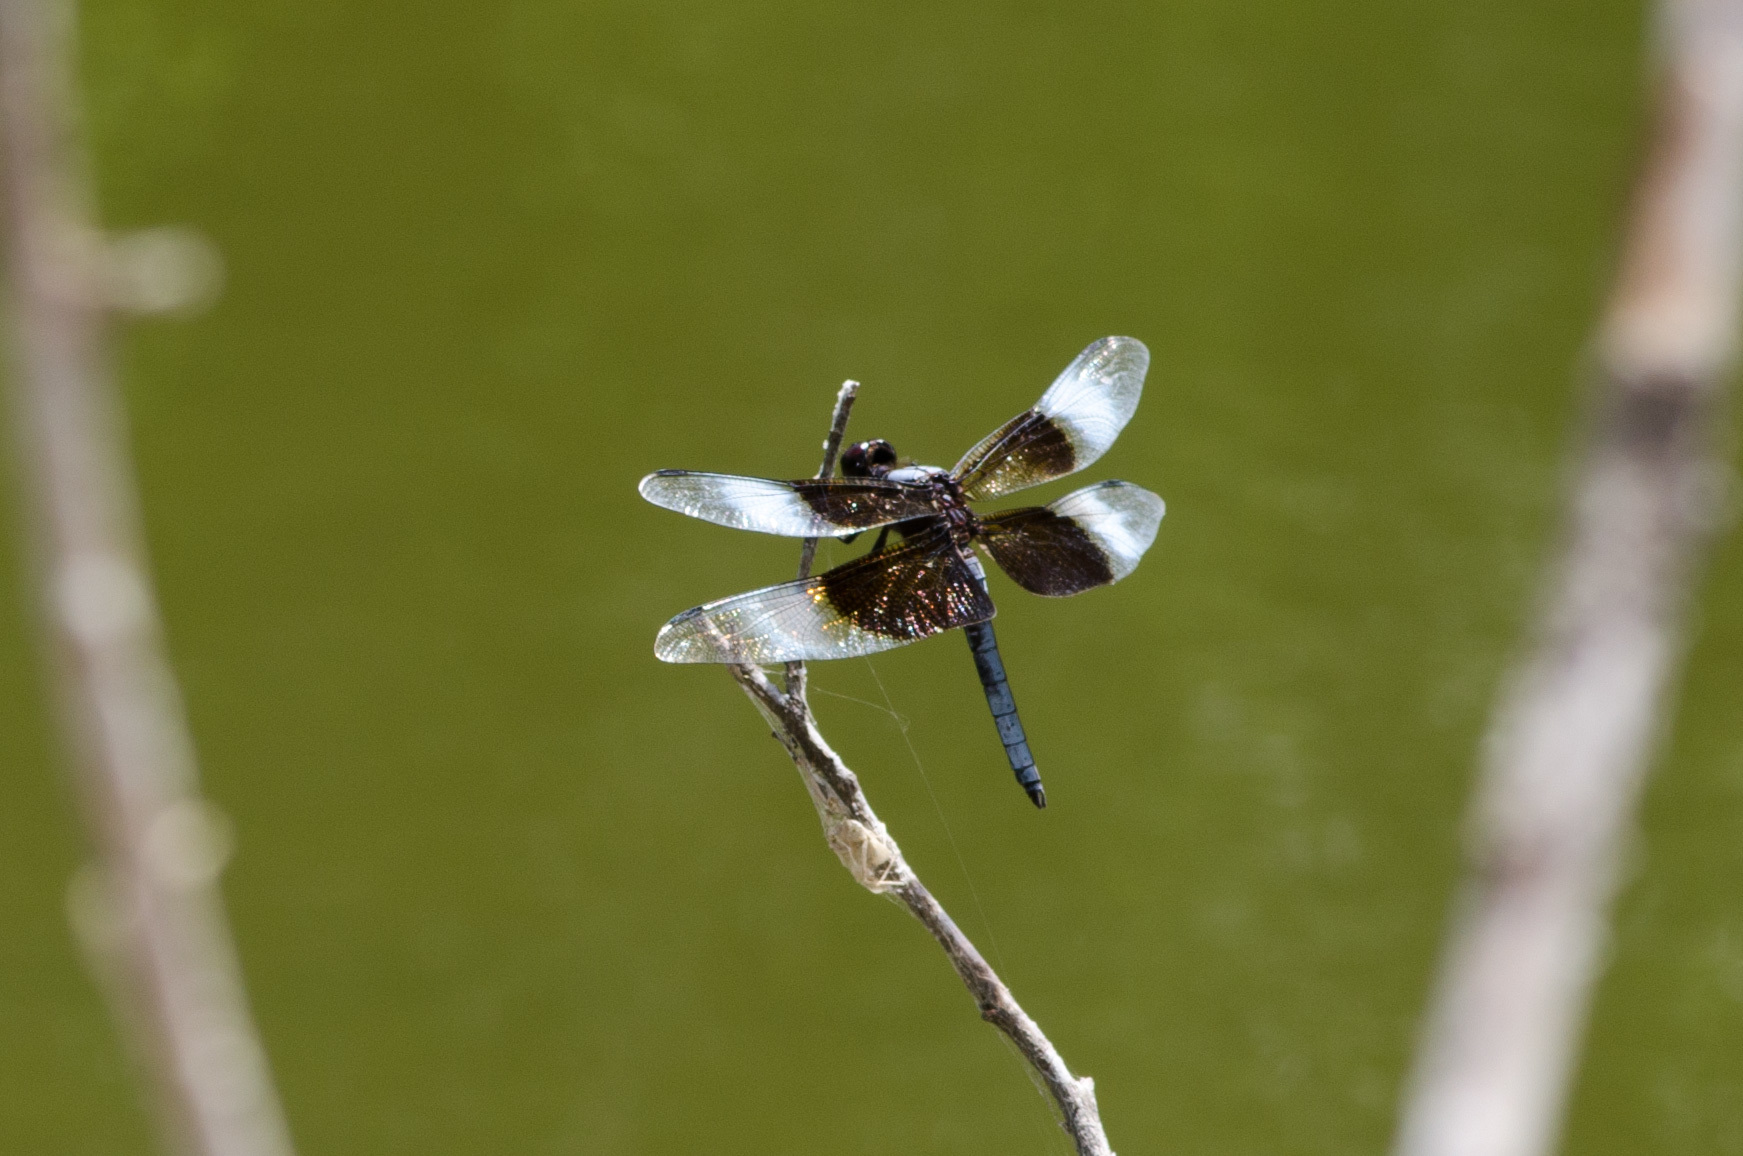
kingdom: Animalia
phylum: Arthropoda
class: Insecta
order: Odonata
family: Libellulidae
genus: Libellula
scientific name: Libellula luctuosa
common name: Widow skimmer
